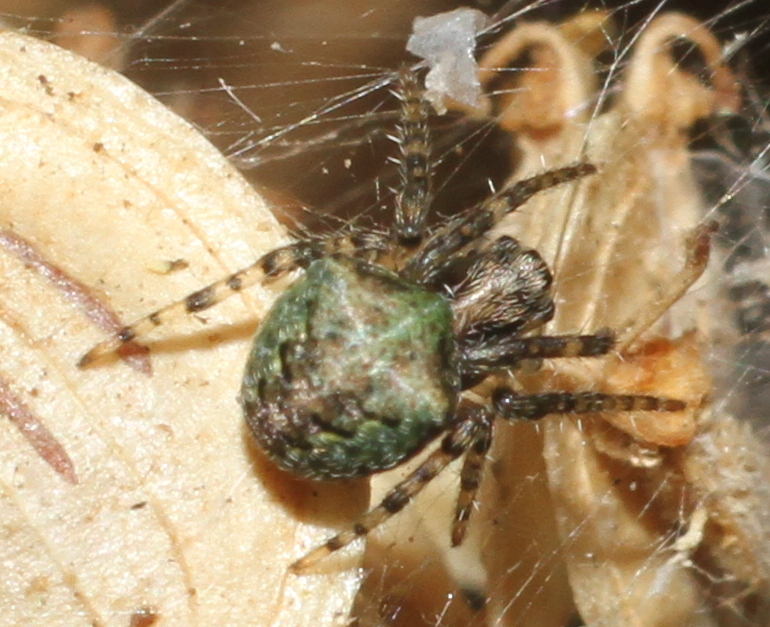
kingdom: Animalia
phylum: Arthropoda
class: Arachnida
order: Araneae
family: Araneidae
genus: Gibbaranea
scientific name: Gibbaranea gibbosa
